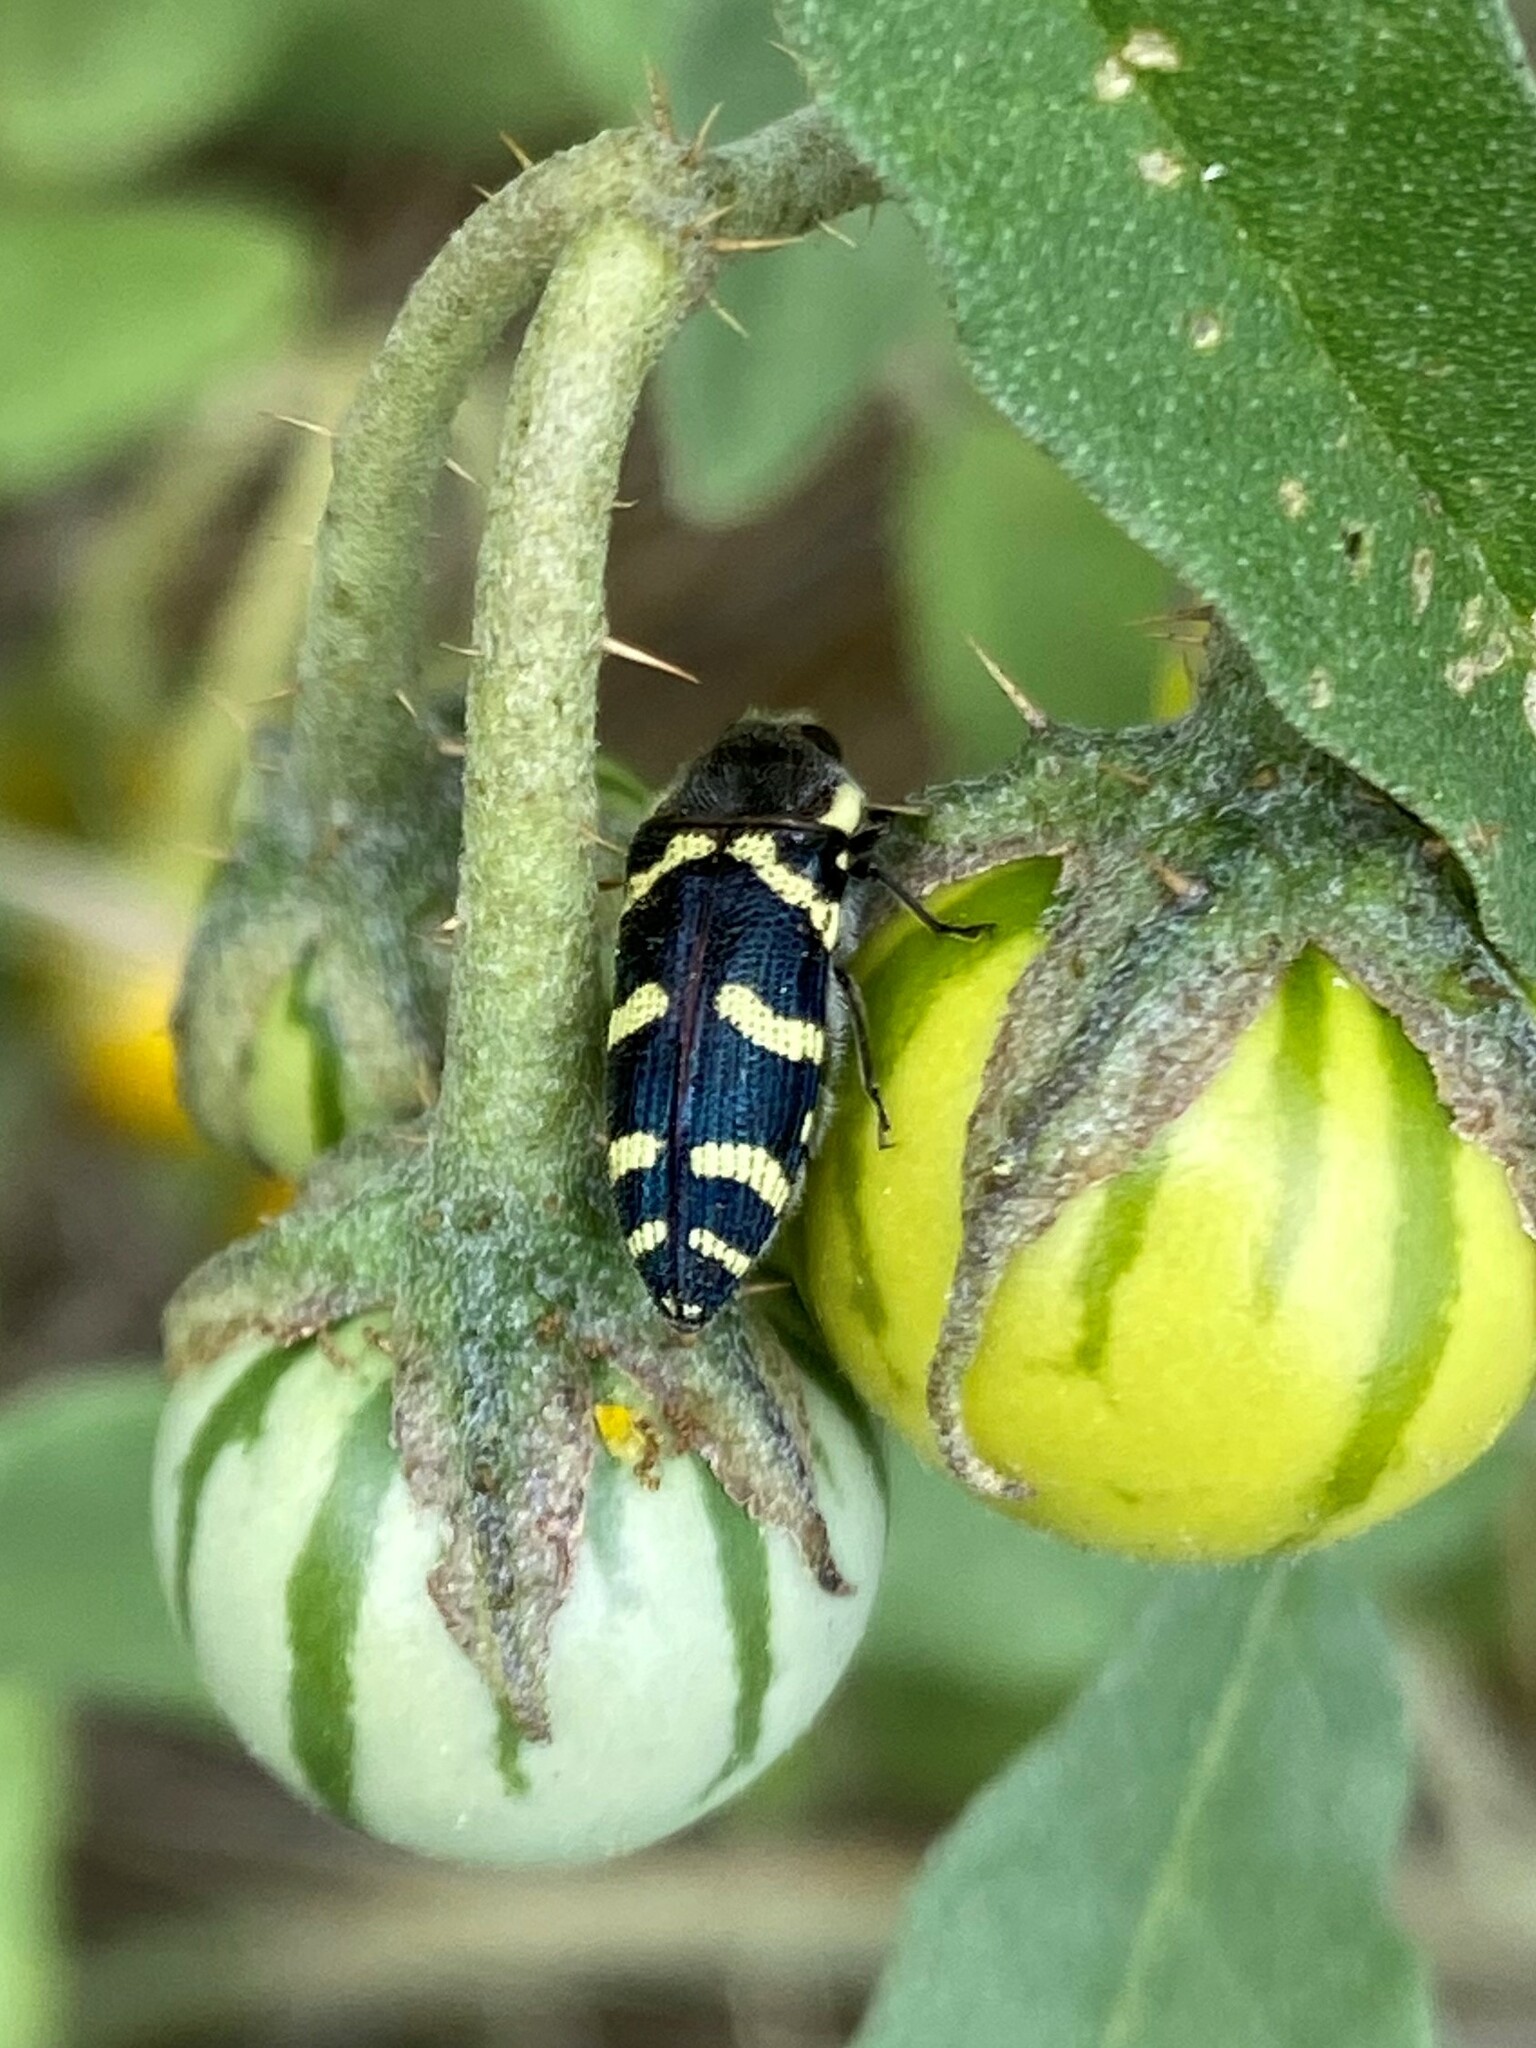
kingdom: Animalia
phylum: Arthropoda
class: Insecta
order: Coleoptera
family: Buprestidae
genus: Acmaeodera
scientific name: Acmaeodera convicta
